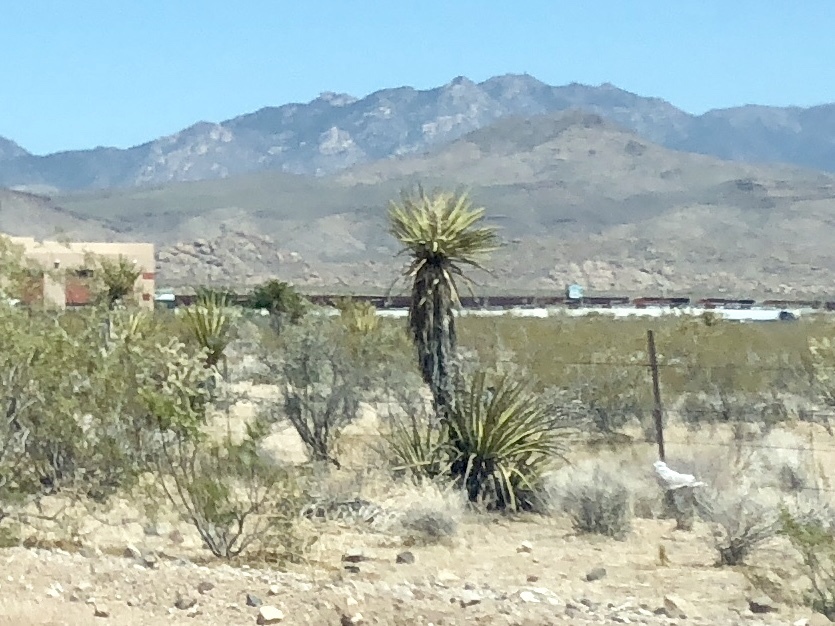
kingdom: Plantae
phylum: Tracheophyta
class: Liliopsida
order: Asparagales
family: Asparagaceae
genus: Yucca
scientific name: Yucca schidigera
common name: Mojave yucca
